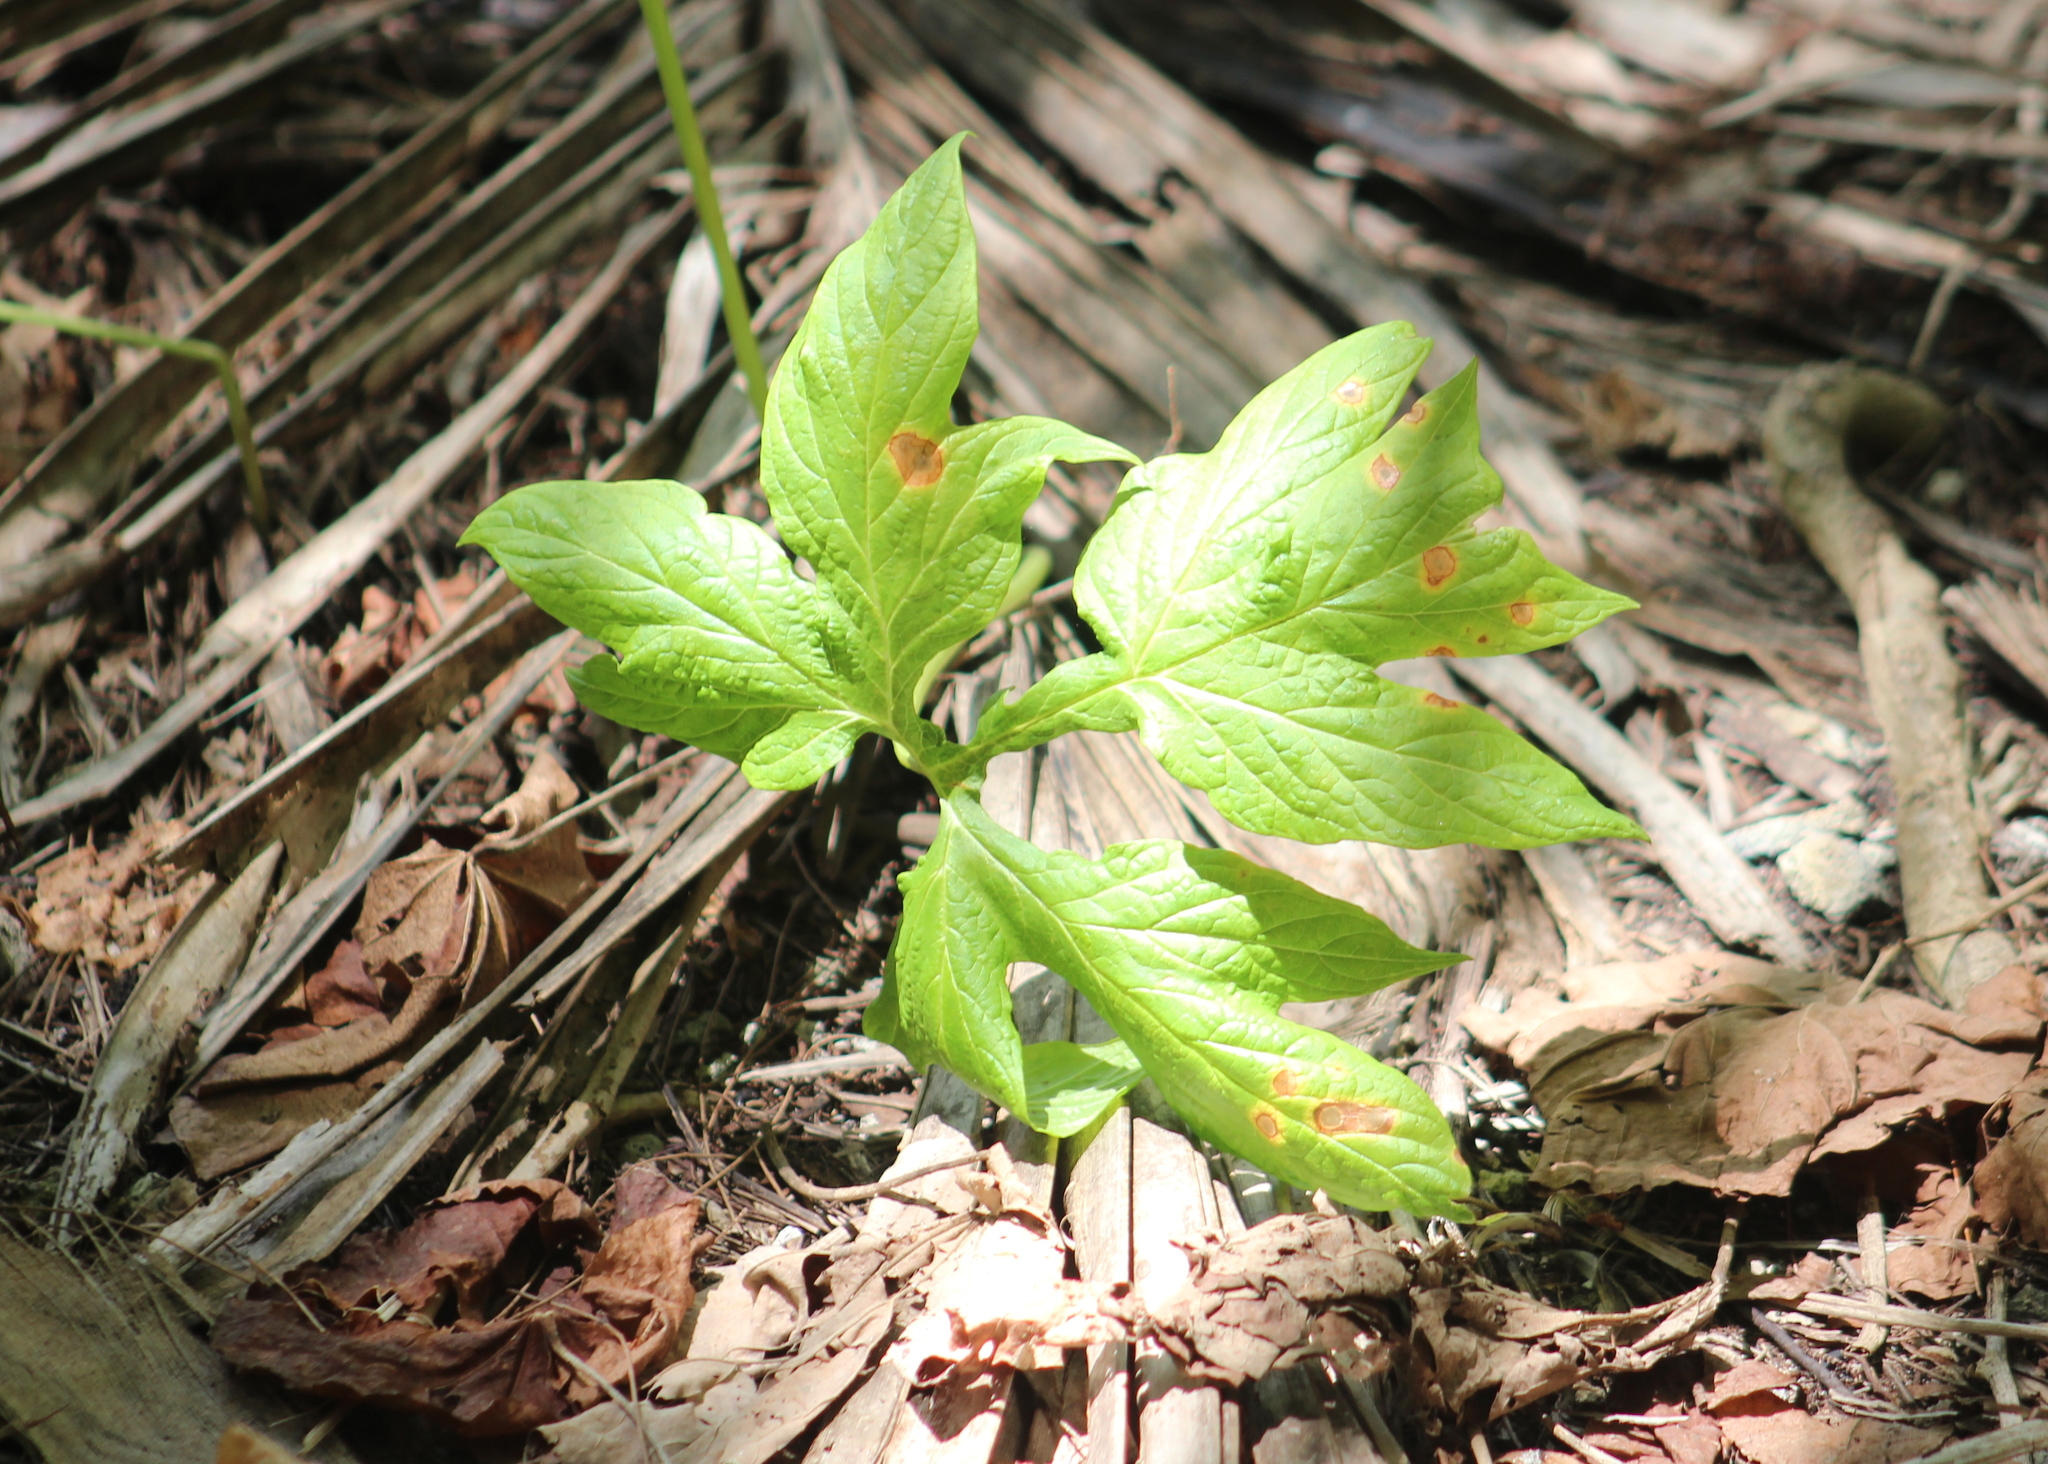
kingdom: Plantae
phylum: Tracheophyta
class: Liliopsida
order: Dioscoreales
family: Dioscoreaceae
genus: Tacca
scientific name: Tacca leontopetaloides
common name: Arrowroot
